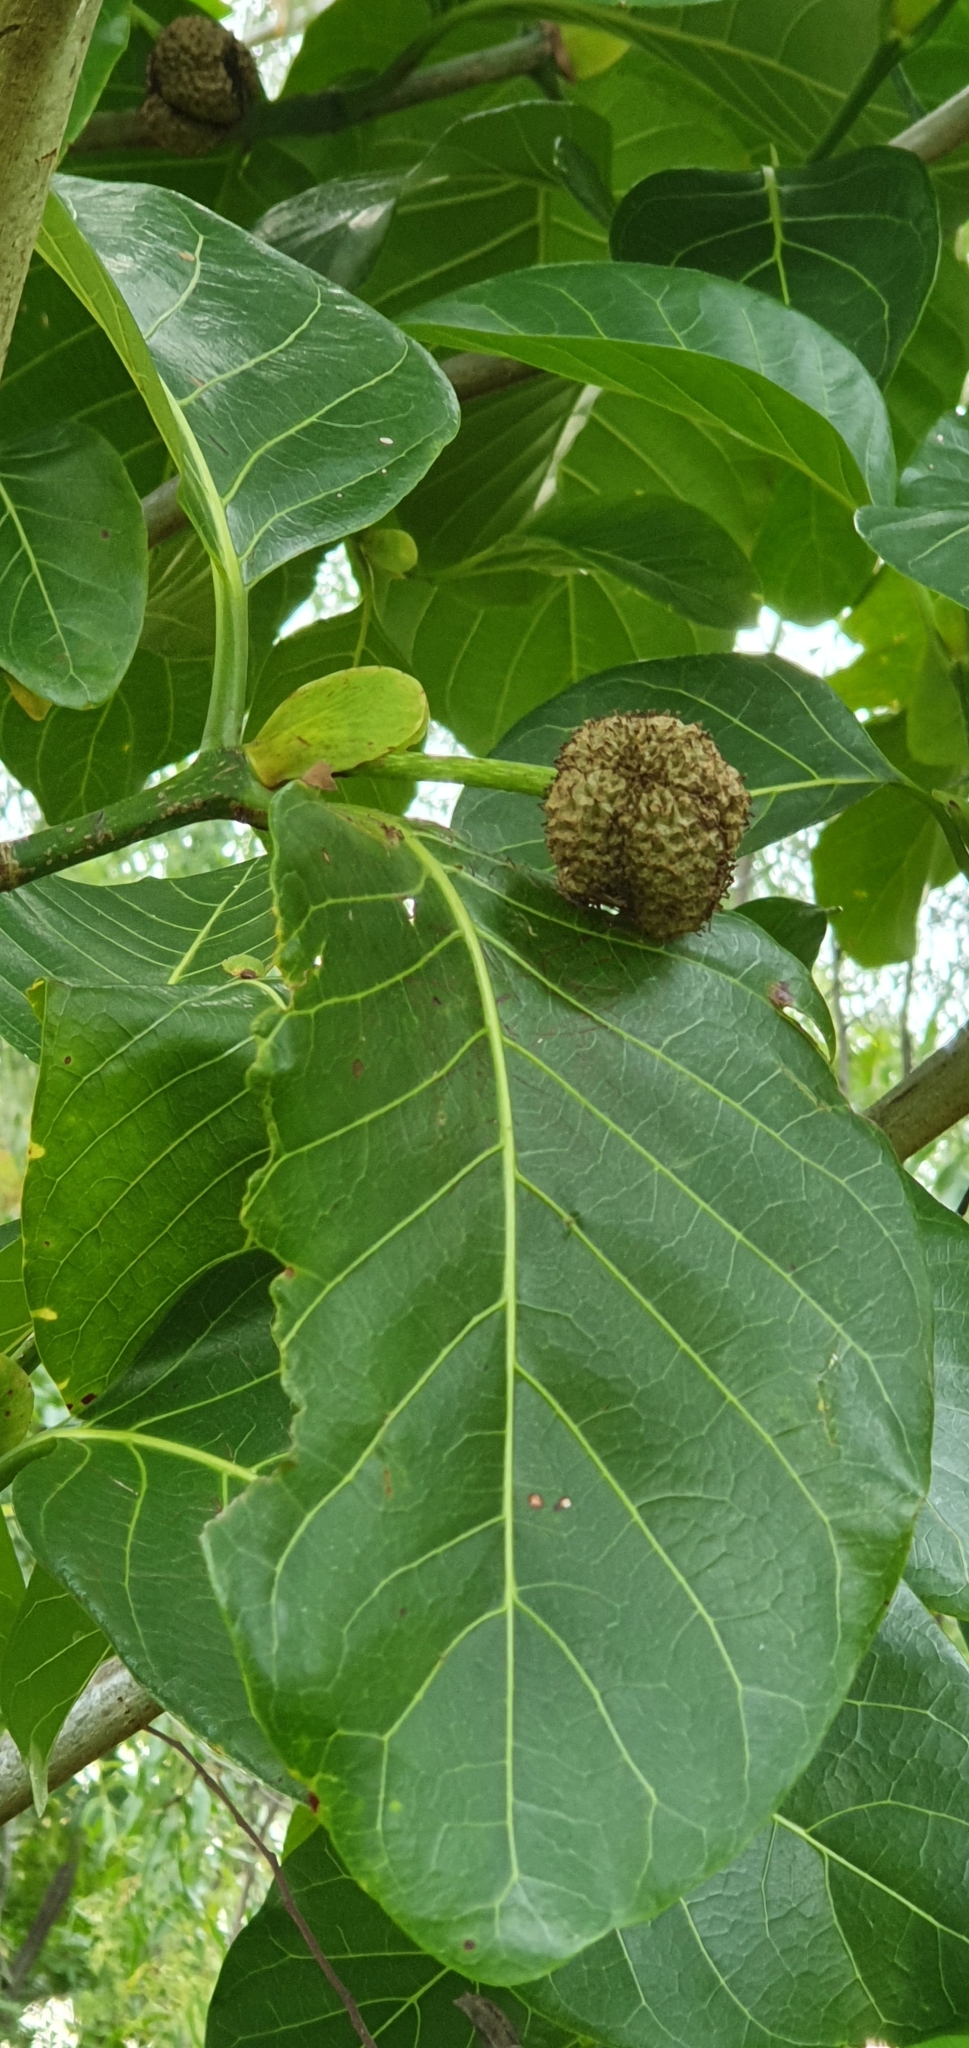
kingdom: Plantae
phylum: Tracheophyta
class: Magnoliopsida
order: Gentianales
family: Rubiaceae
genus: Nauclea
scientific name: Nauclea orientalis
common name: Leichhardt-pine
